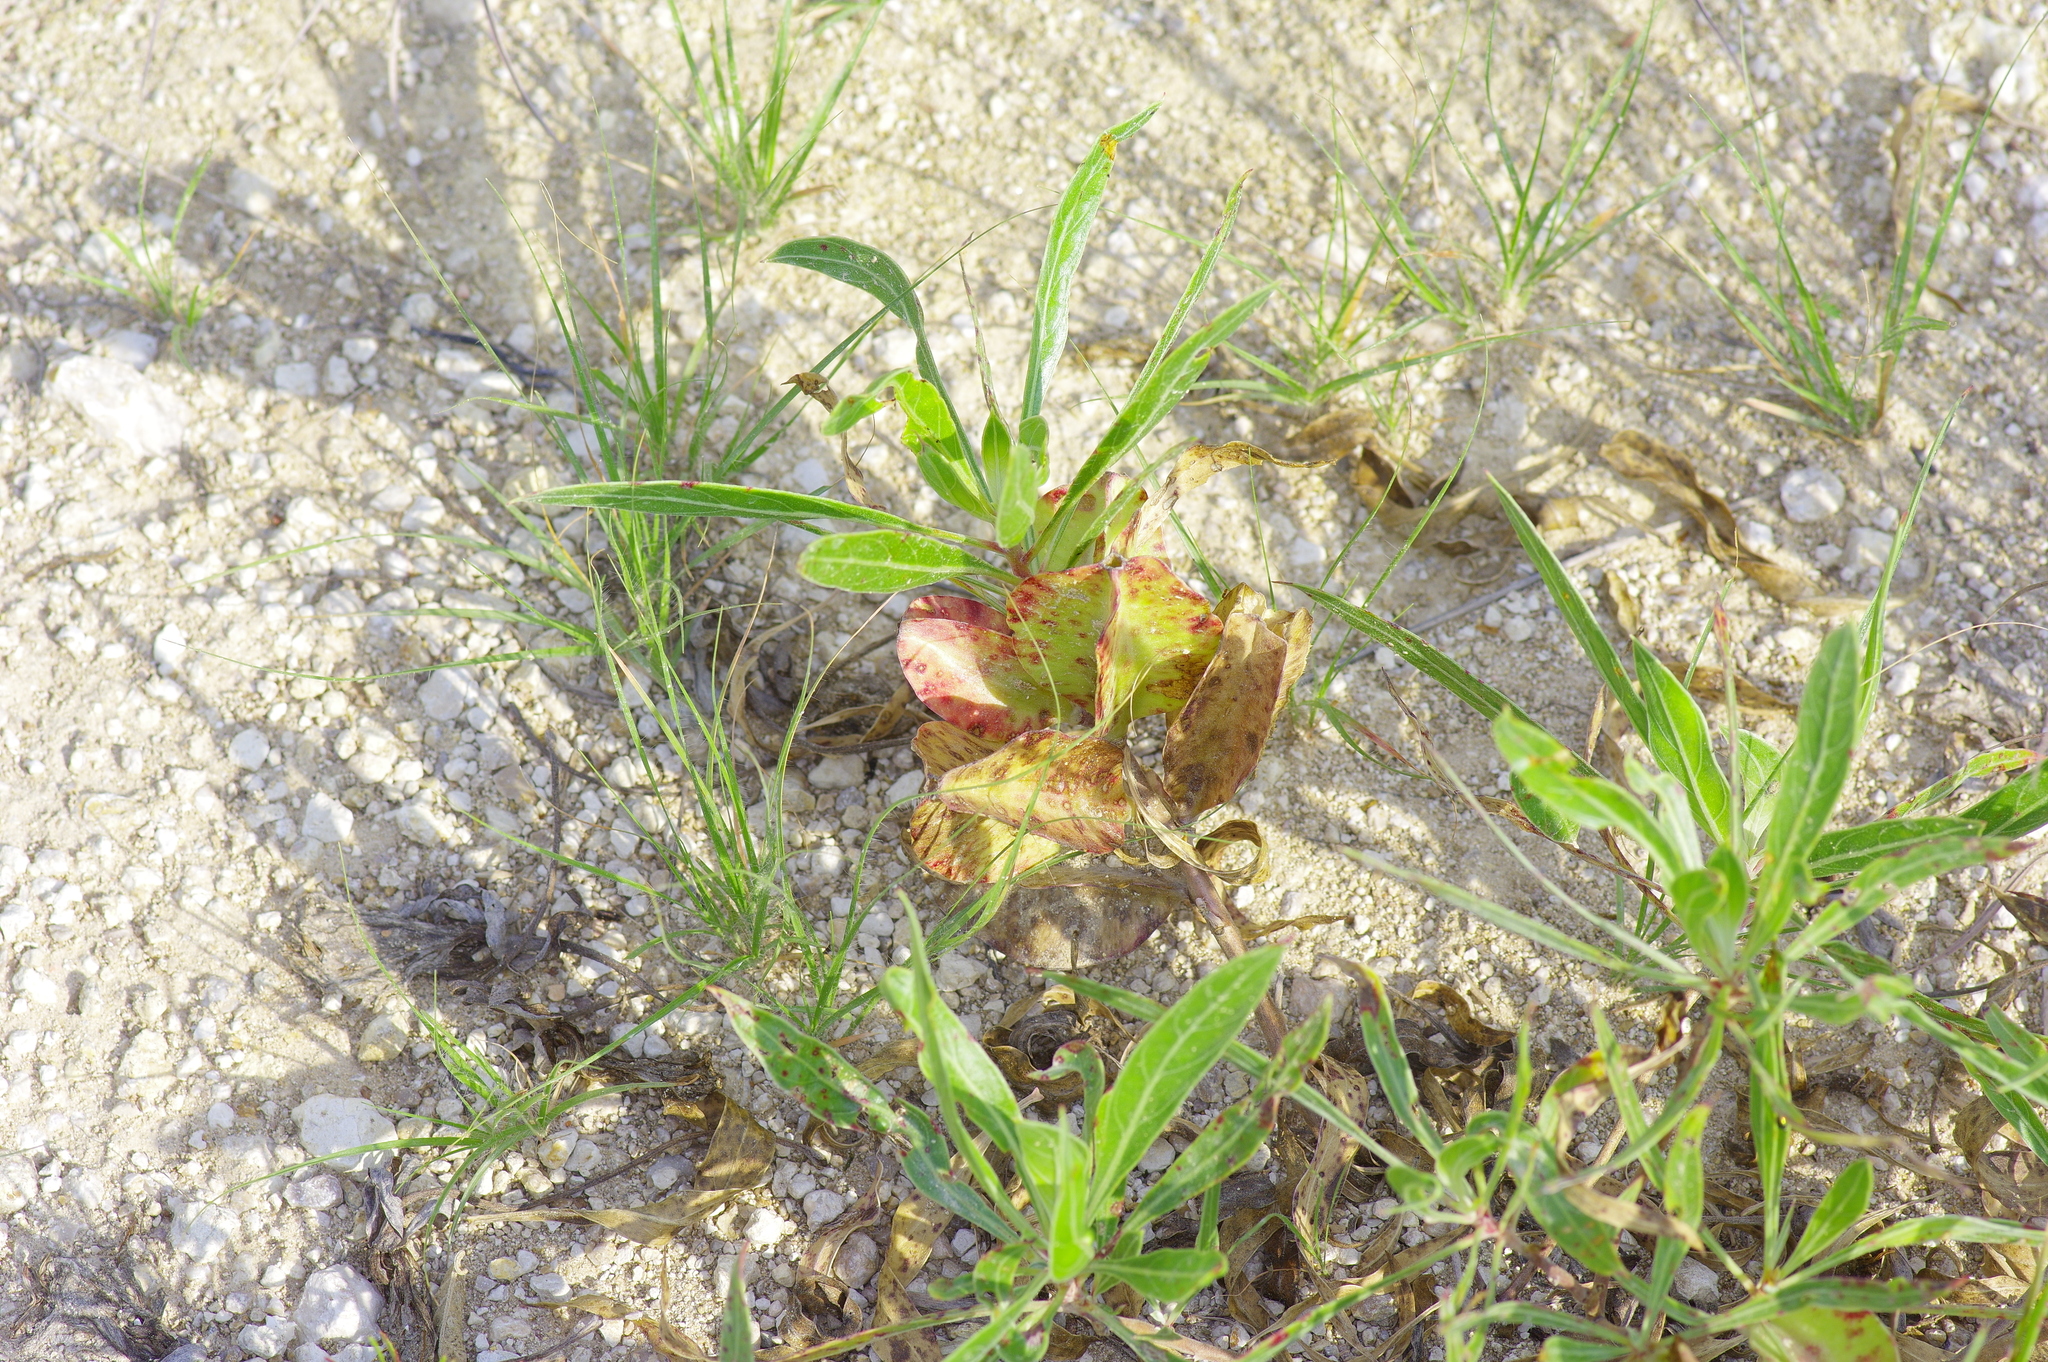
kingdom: Plantae
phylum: Tracheophyta
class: Magnoliopsida
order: Myrtales
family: Onagraceae
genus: Oenothera
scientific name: Oenothera macrocarpa
